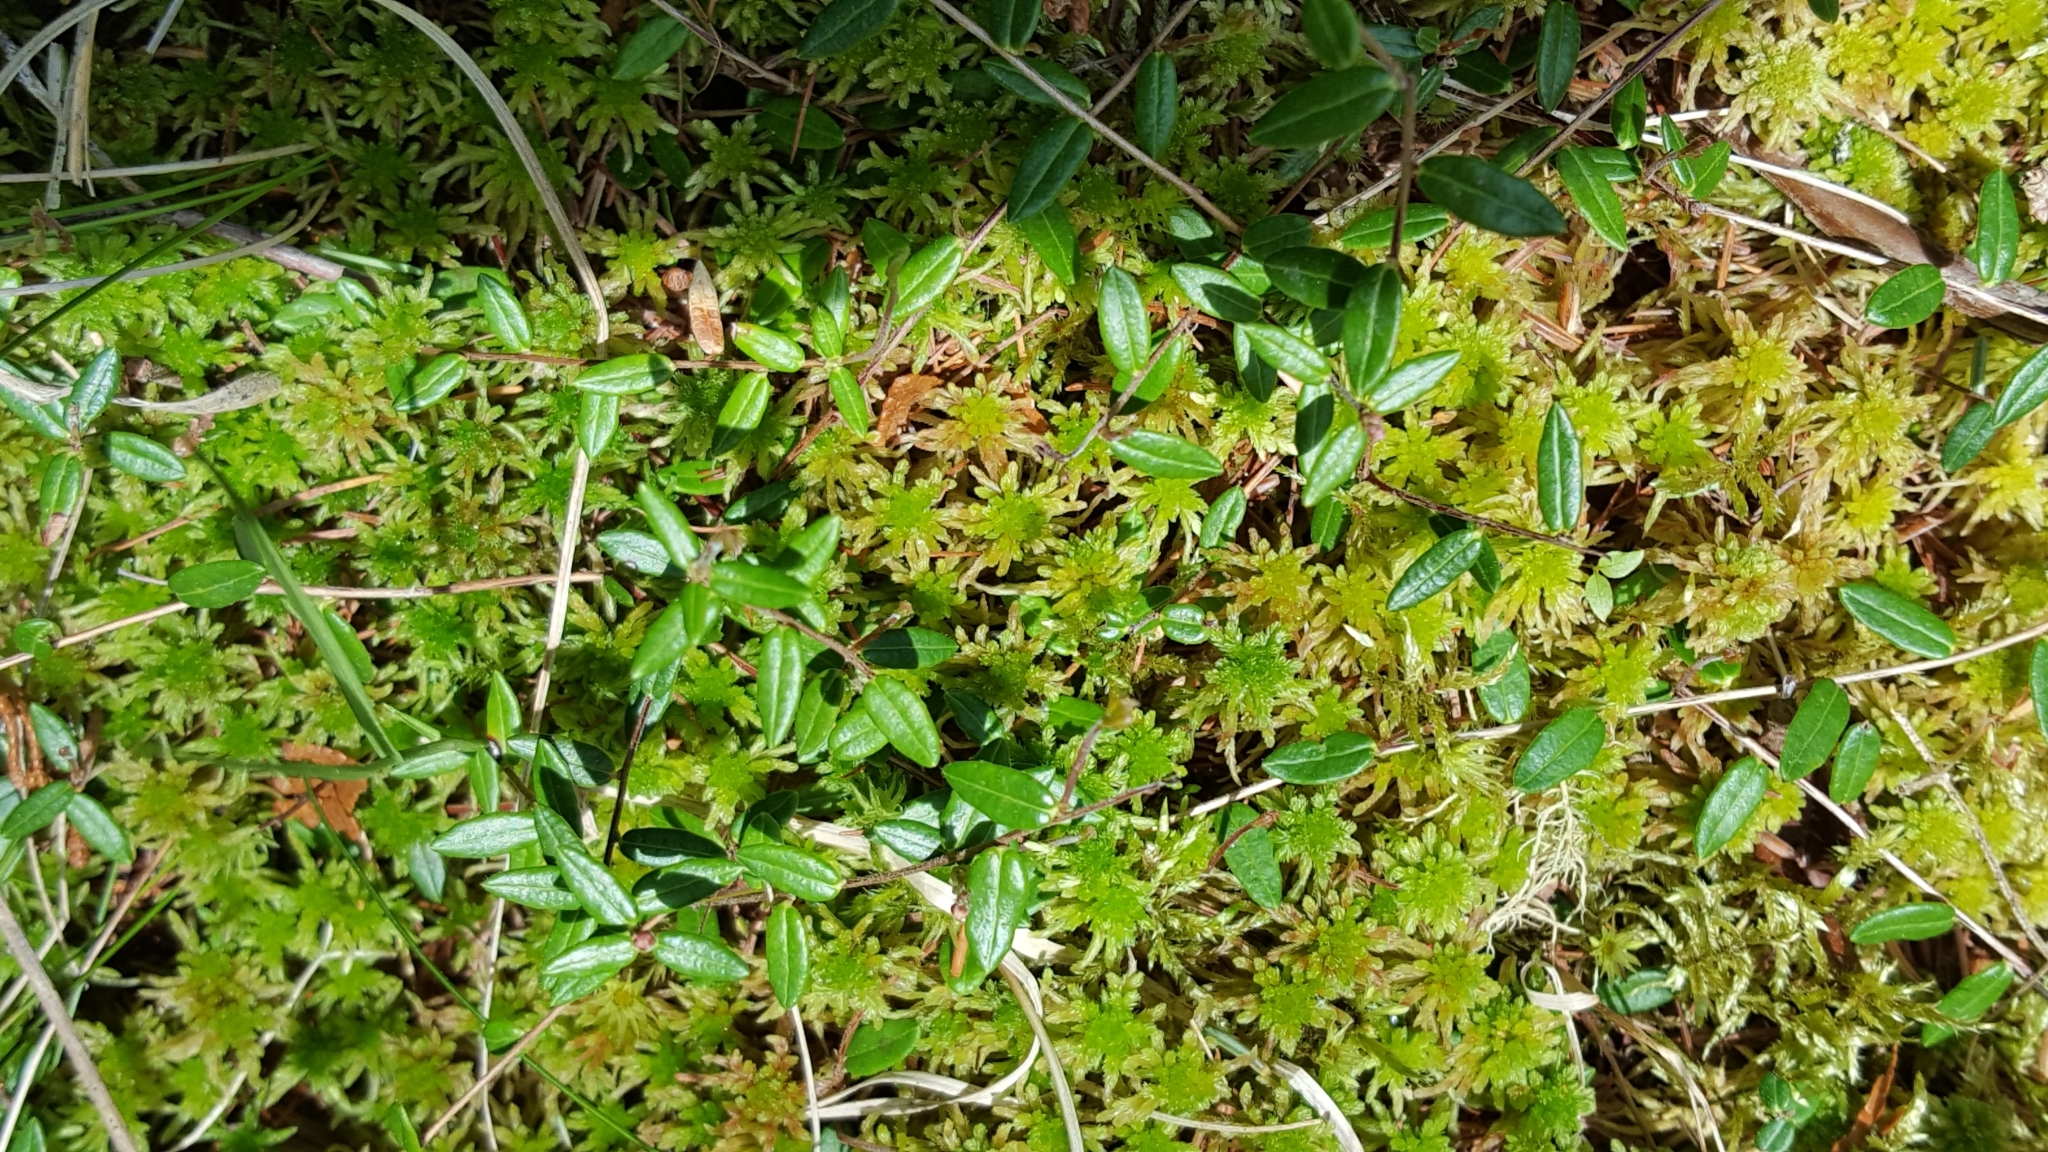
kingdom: Plantae
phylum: Tracheophyta
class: Magnoliopsida
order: Ericales
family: Ericaceae
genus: Vaccinium
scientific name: Vaccinium oxycoccos
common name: Cranberry
